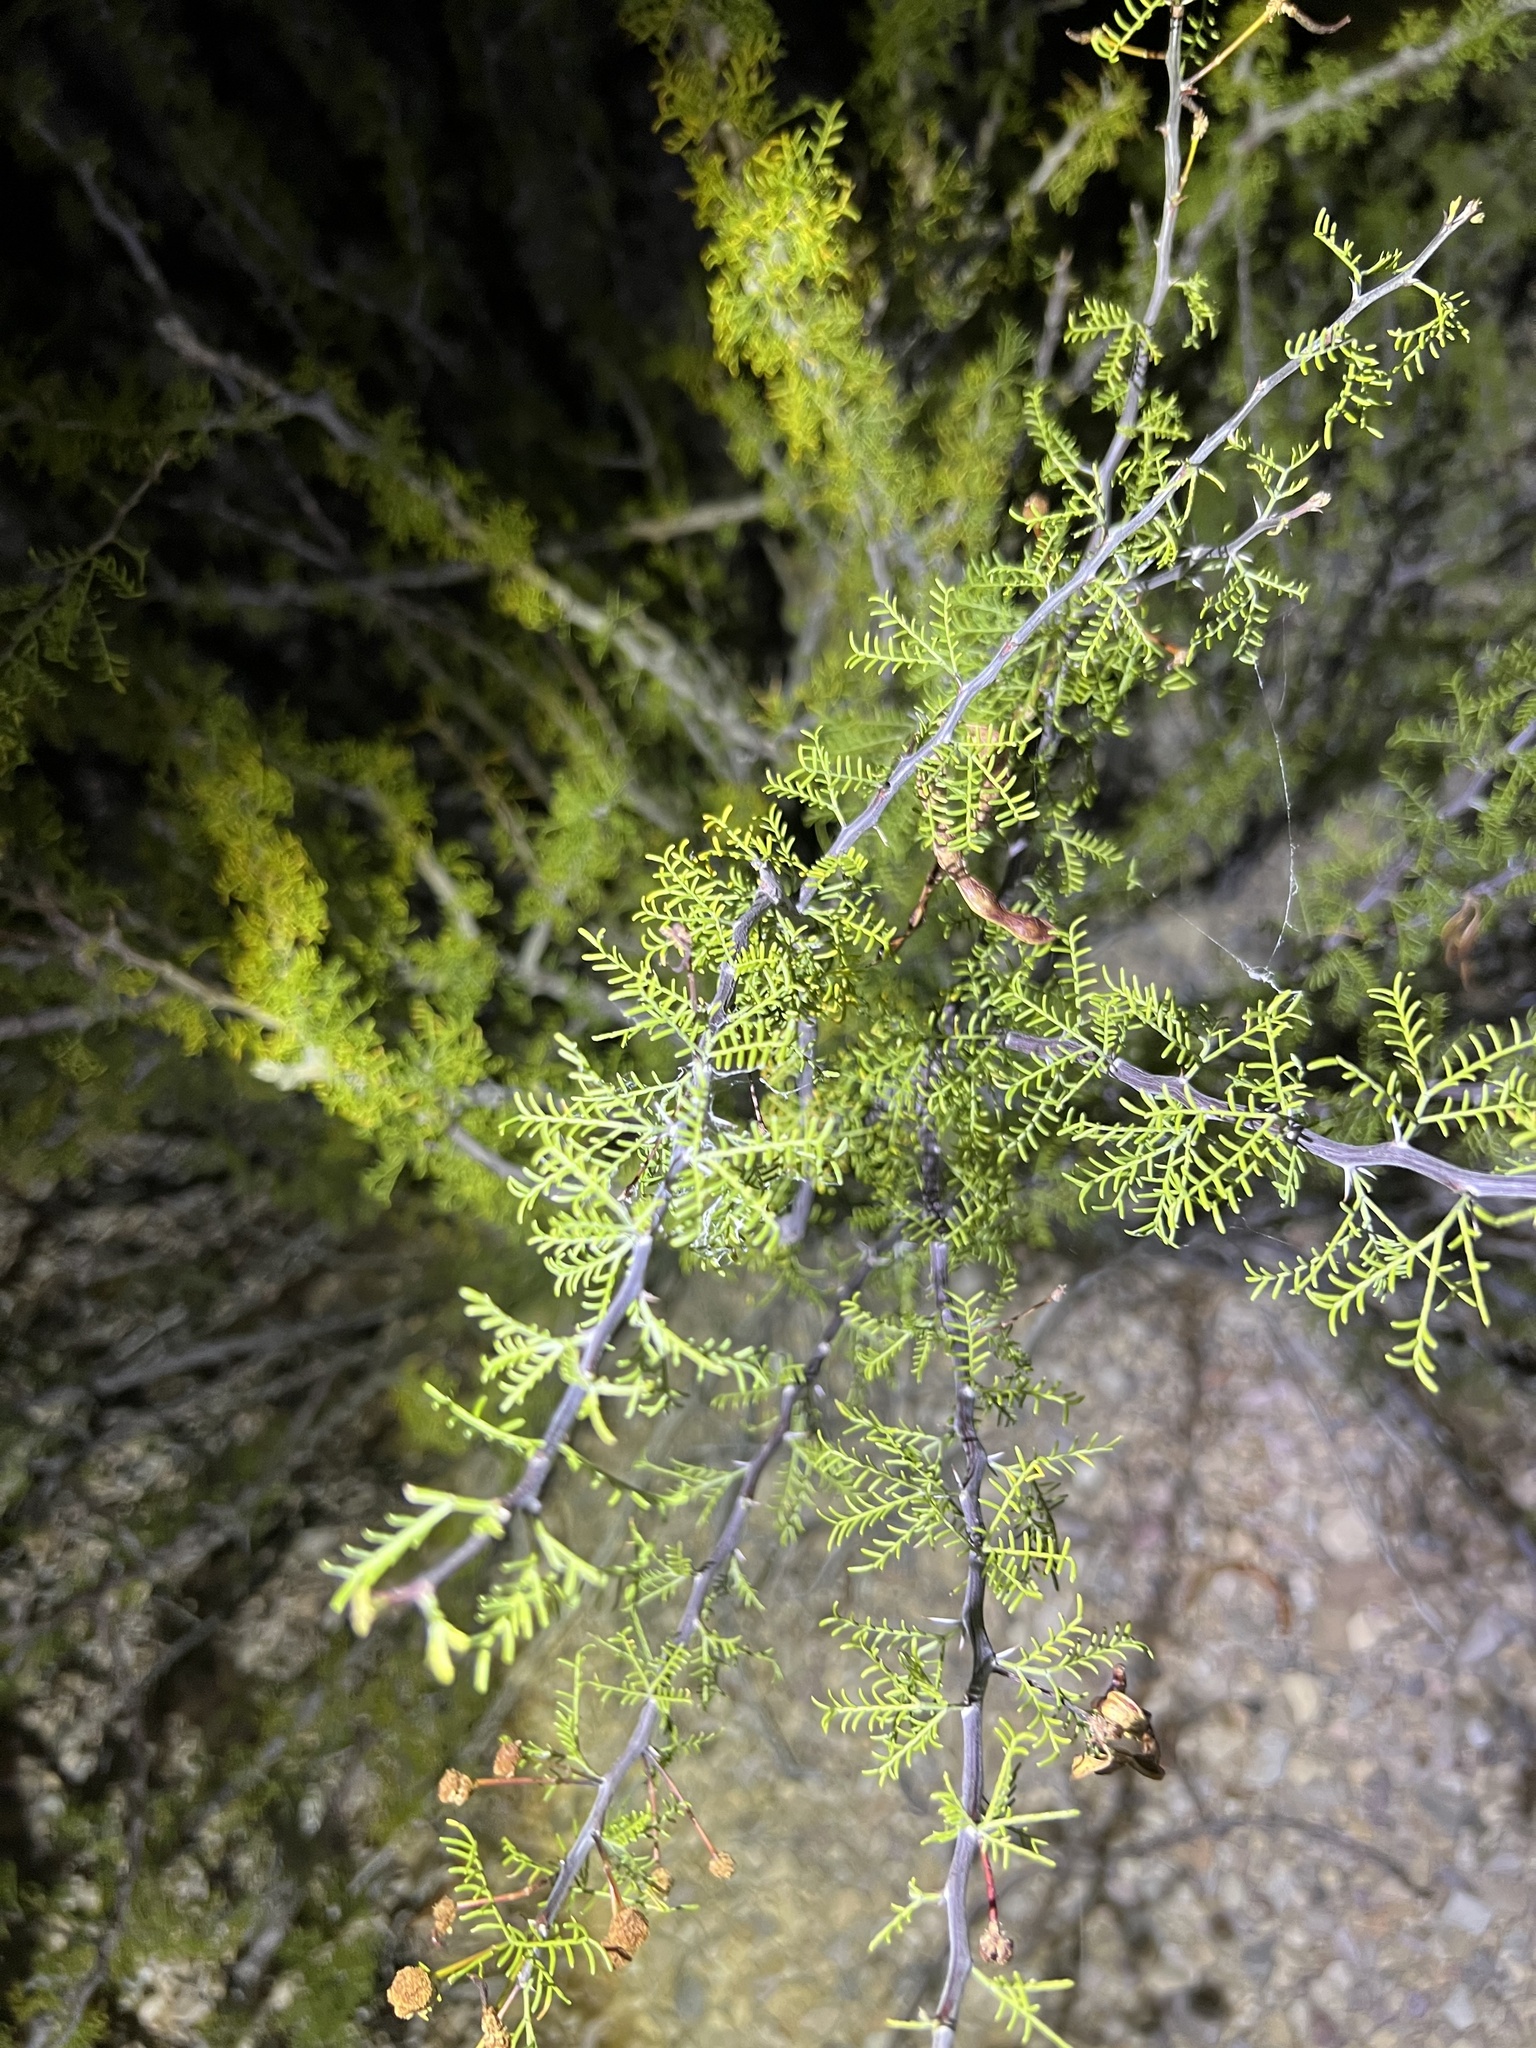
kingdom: Plantae
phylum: Tracheophyta
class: Magnoliopsida
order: Fabales
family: Fabaceae
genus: Vachellia
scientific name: Vachellia schottii
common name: Schott acacia
